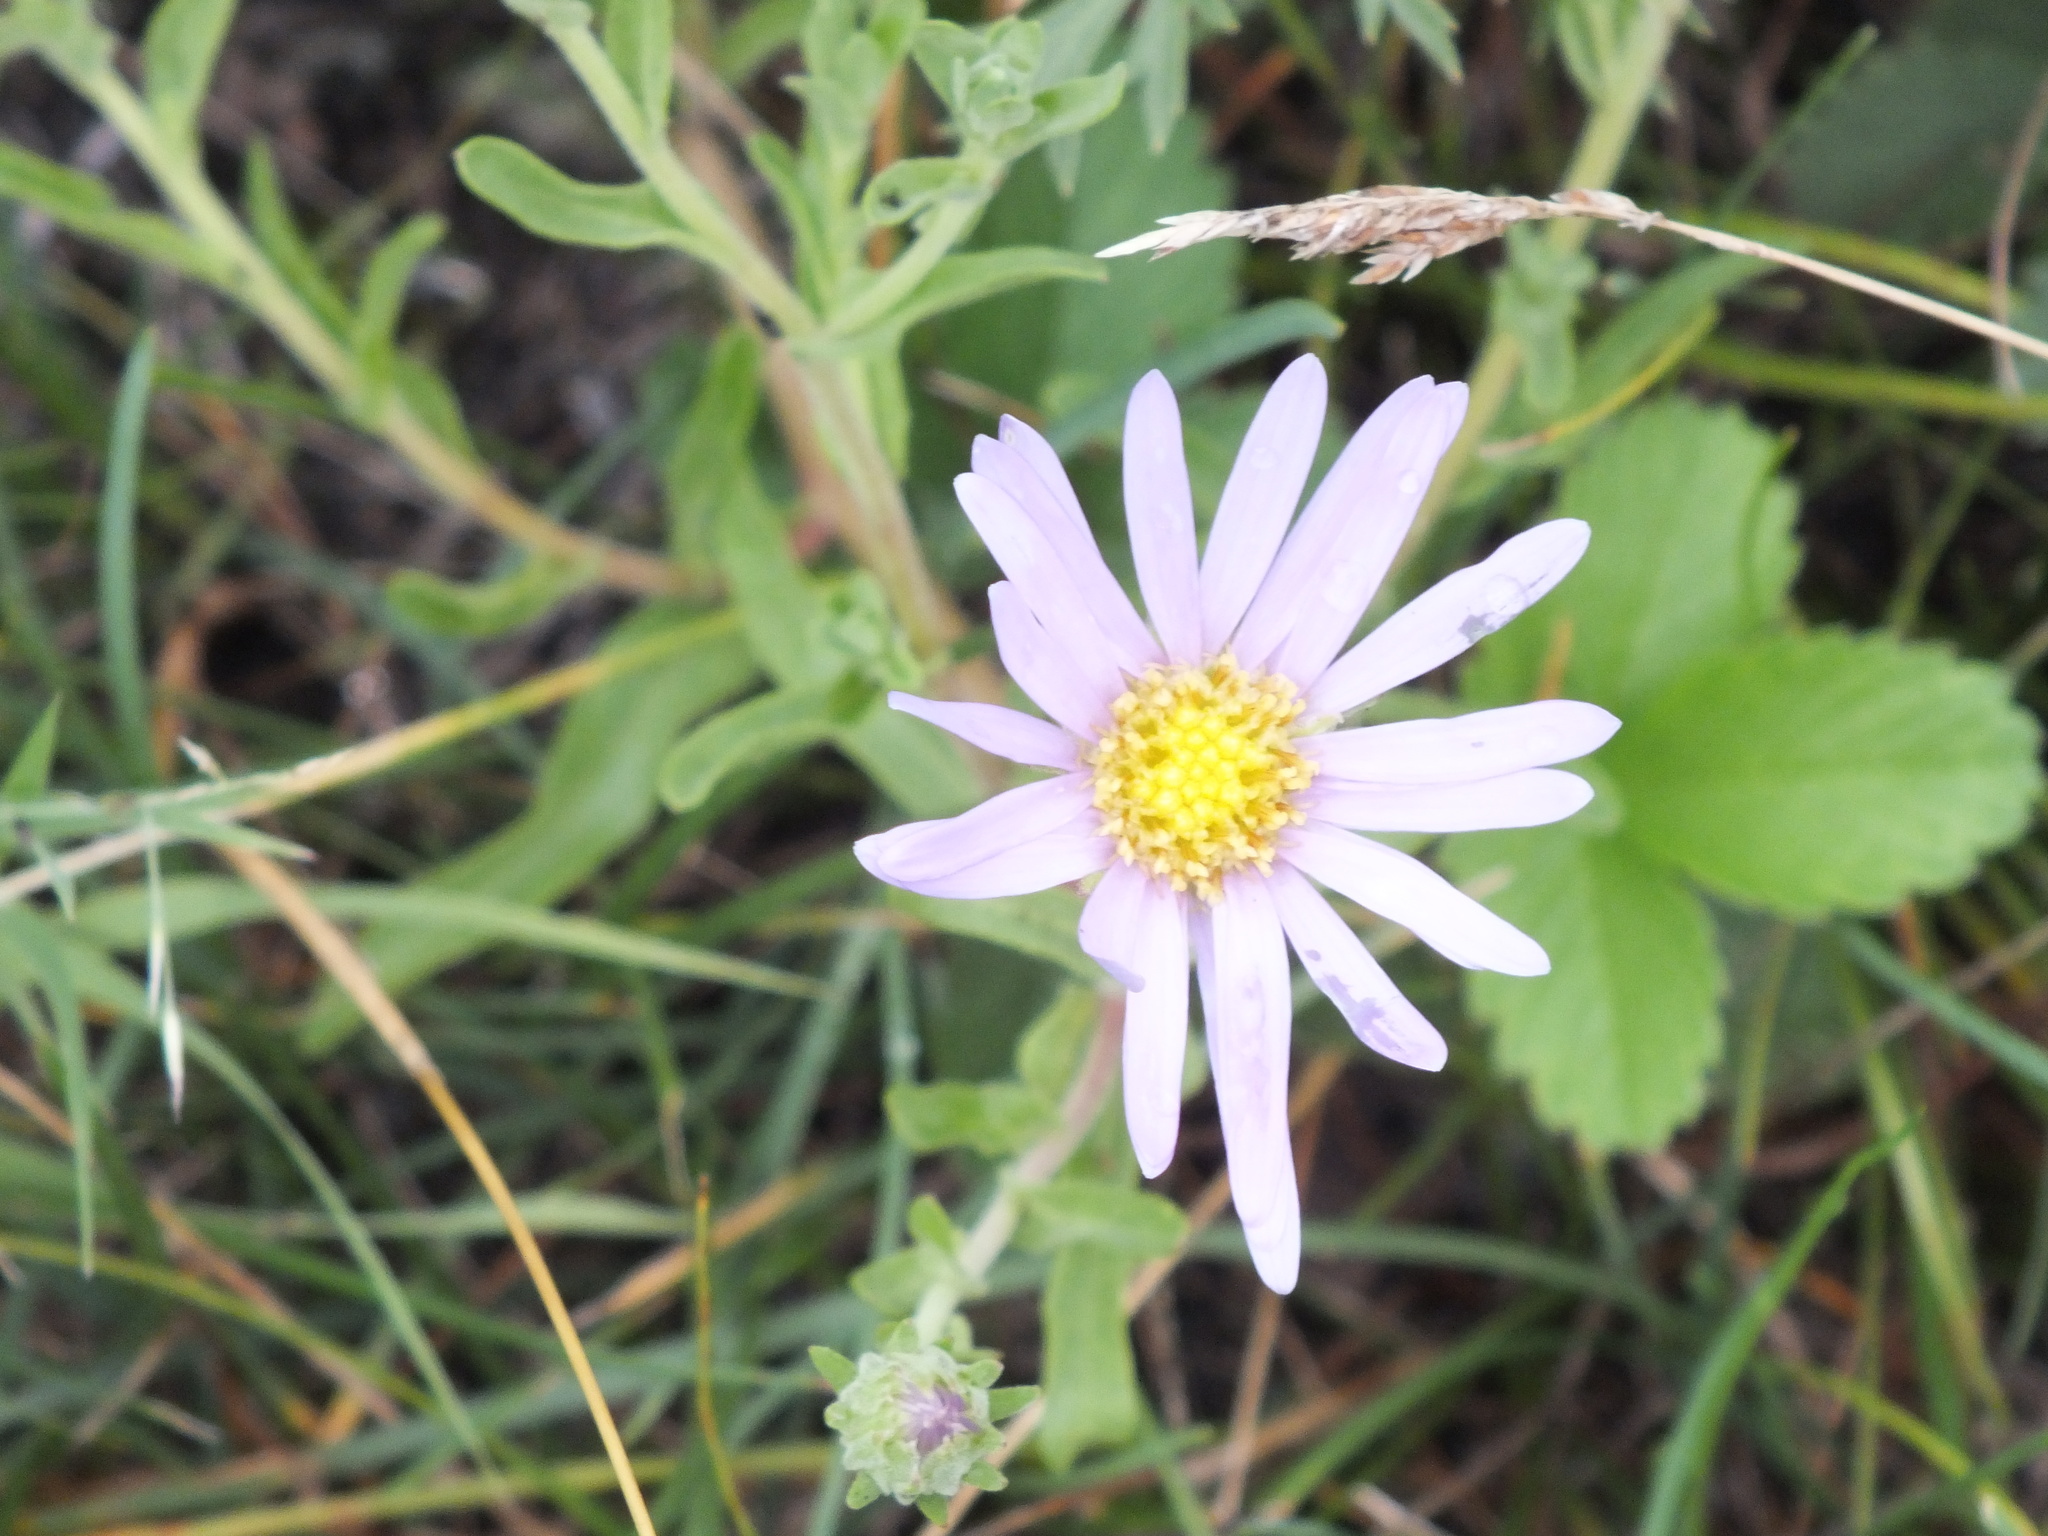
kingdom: Plantae
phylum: Tracheophyta
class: Magnoliopsida
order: Asterales
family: Asteraceae
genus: Heteropappus
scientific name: Heteropappus altaicus
